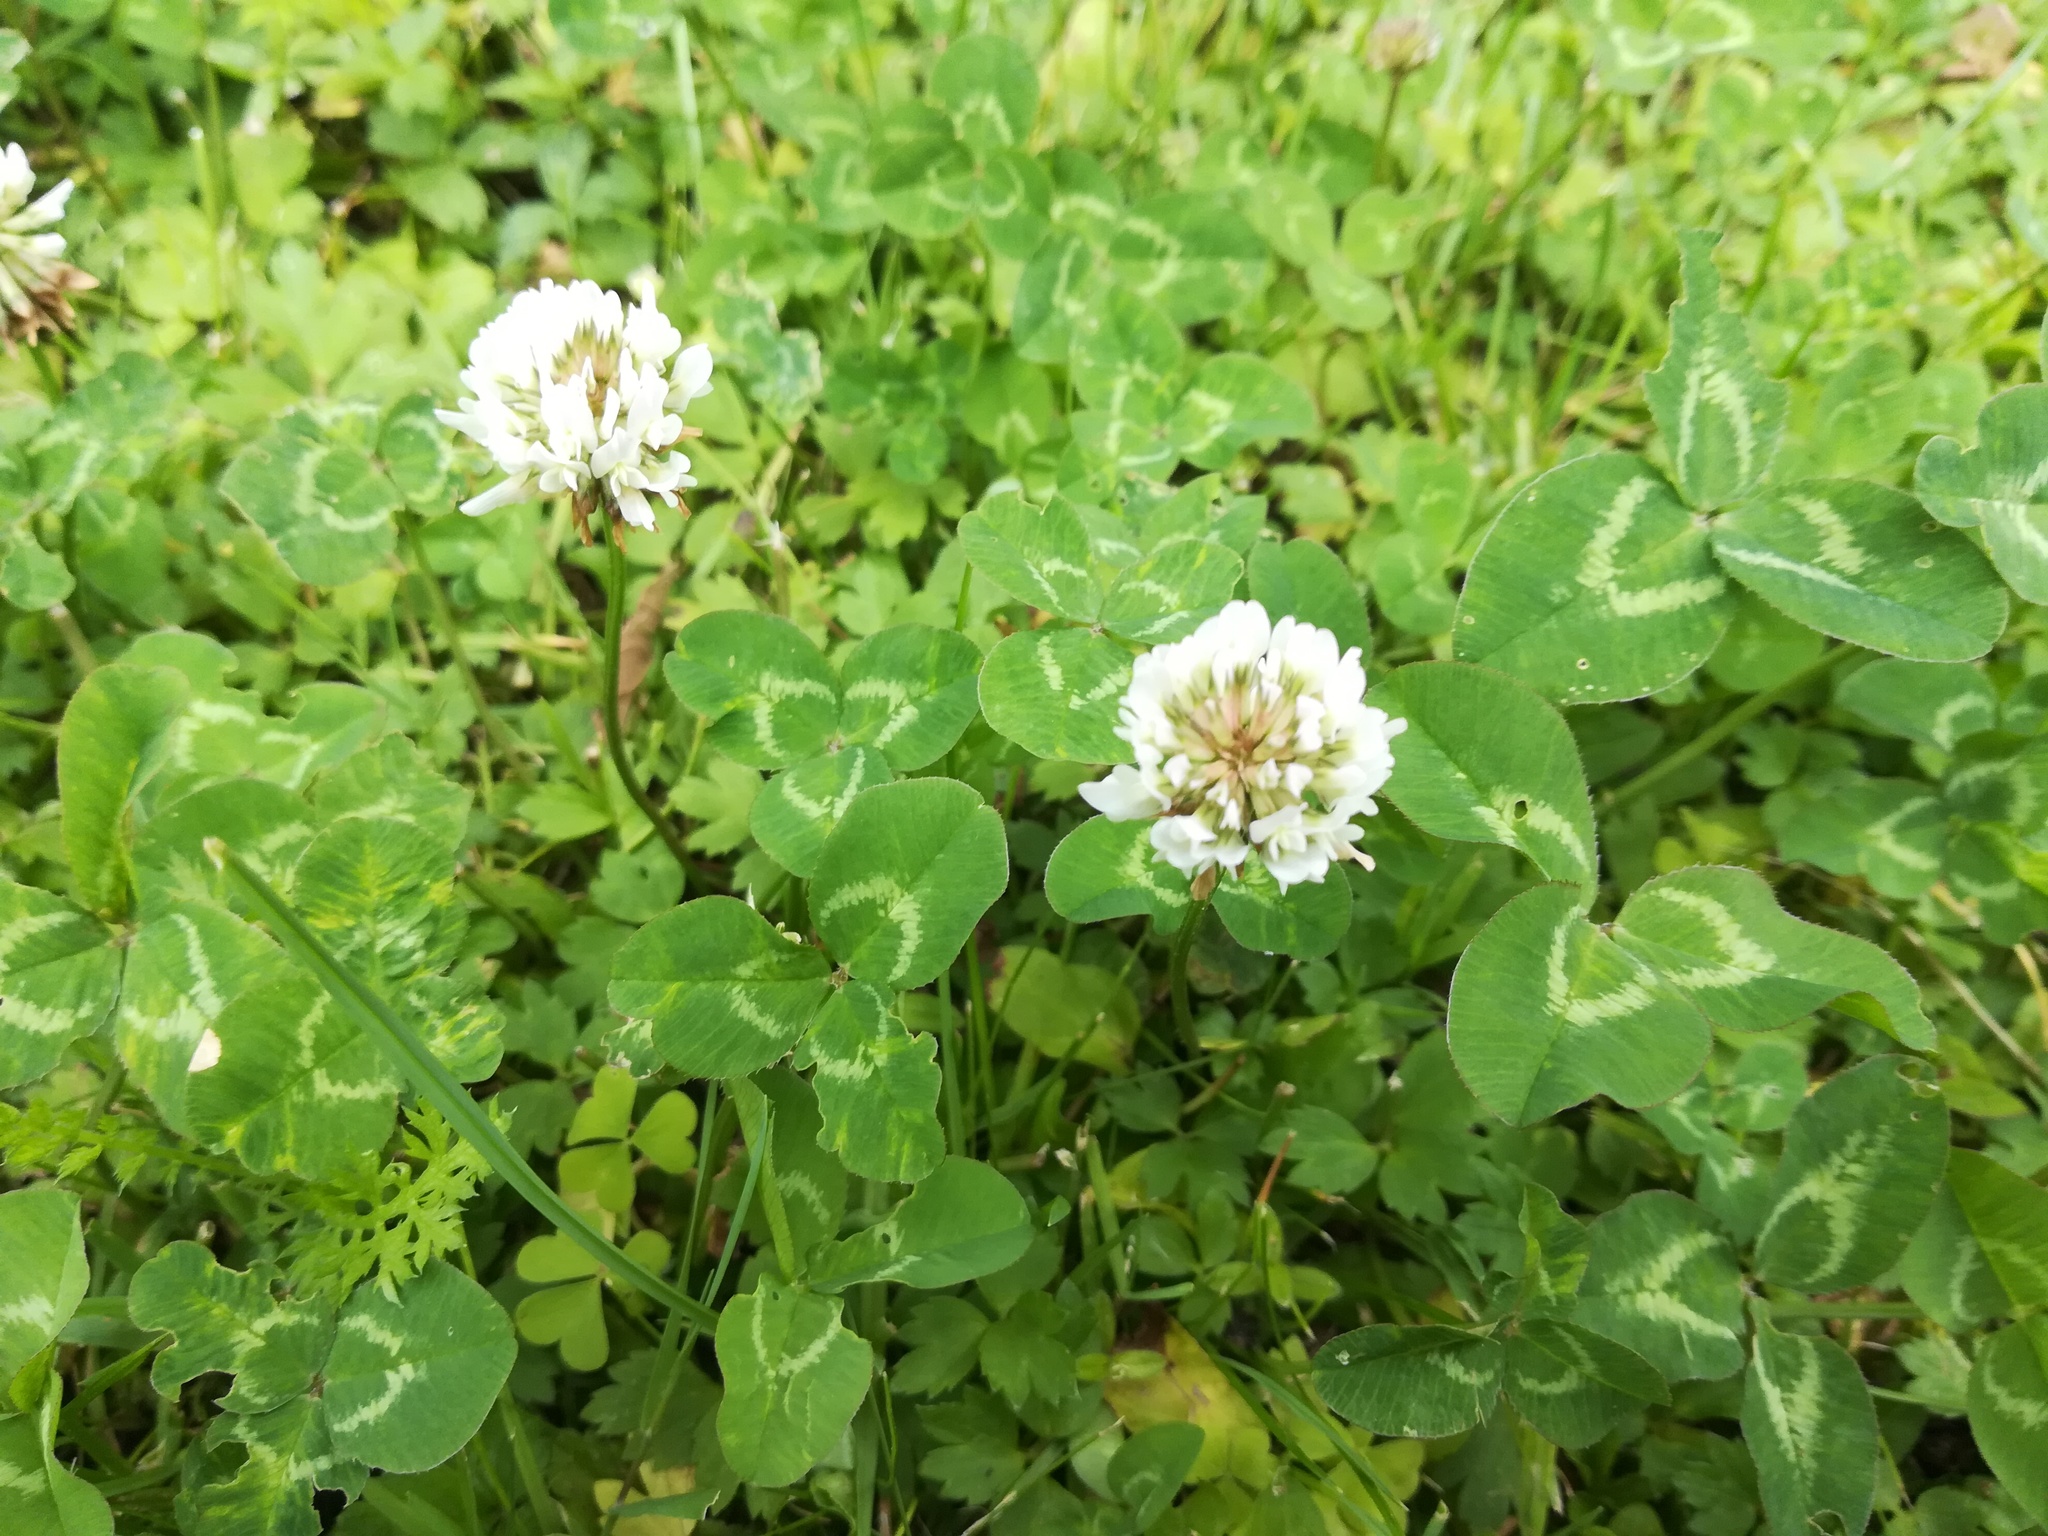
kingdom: Plantae
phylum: Tracheophyta
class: Magnoliopsida
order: Fabales
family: Fabaceae
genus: Trifolium
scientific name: Trifolium repens
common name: White clover
